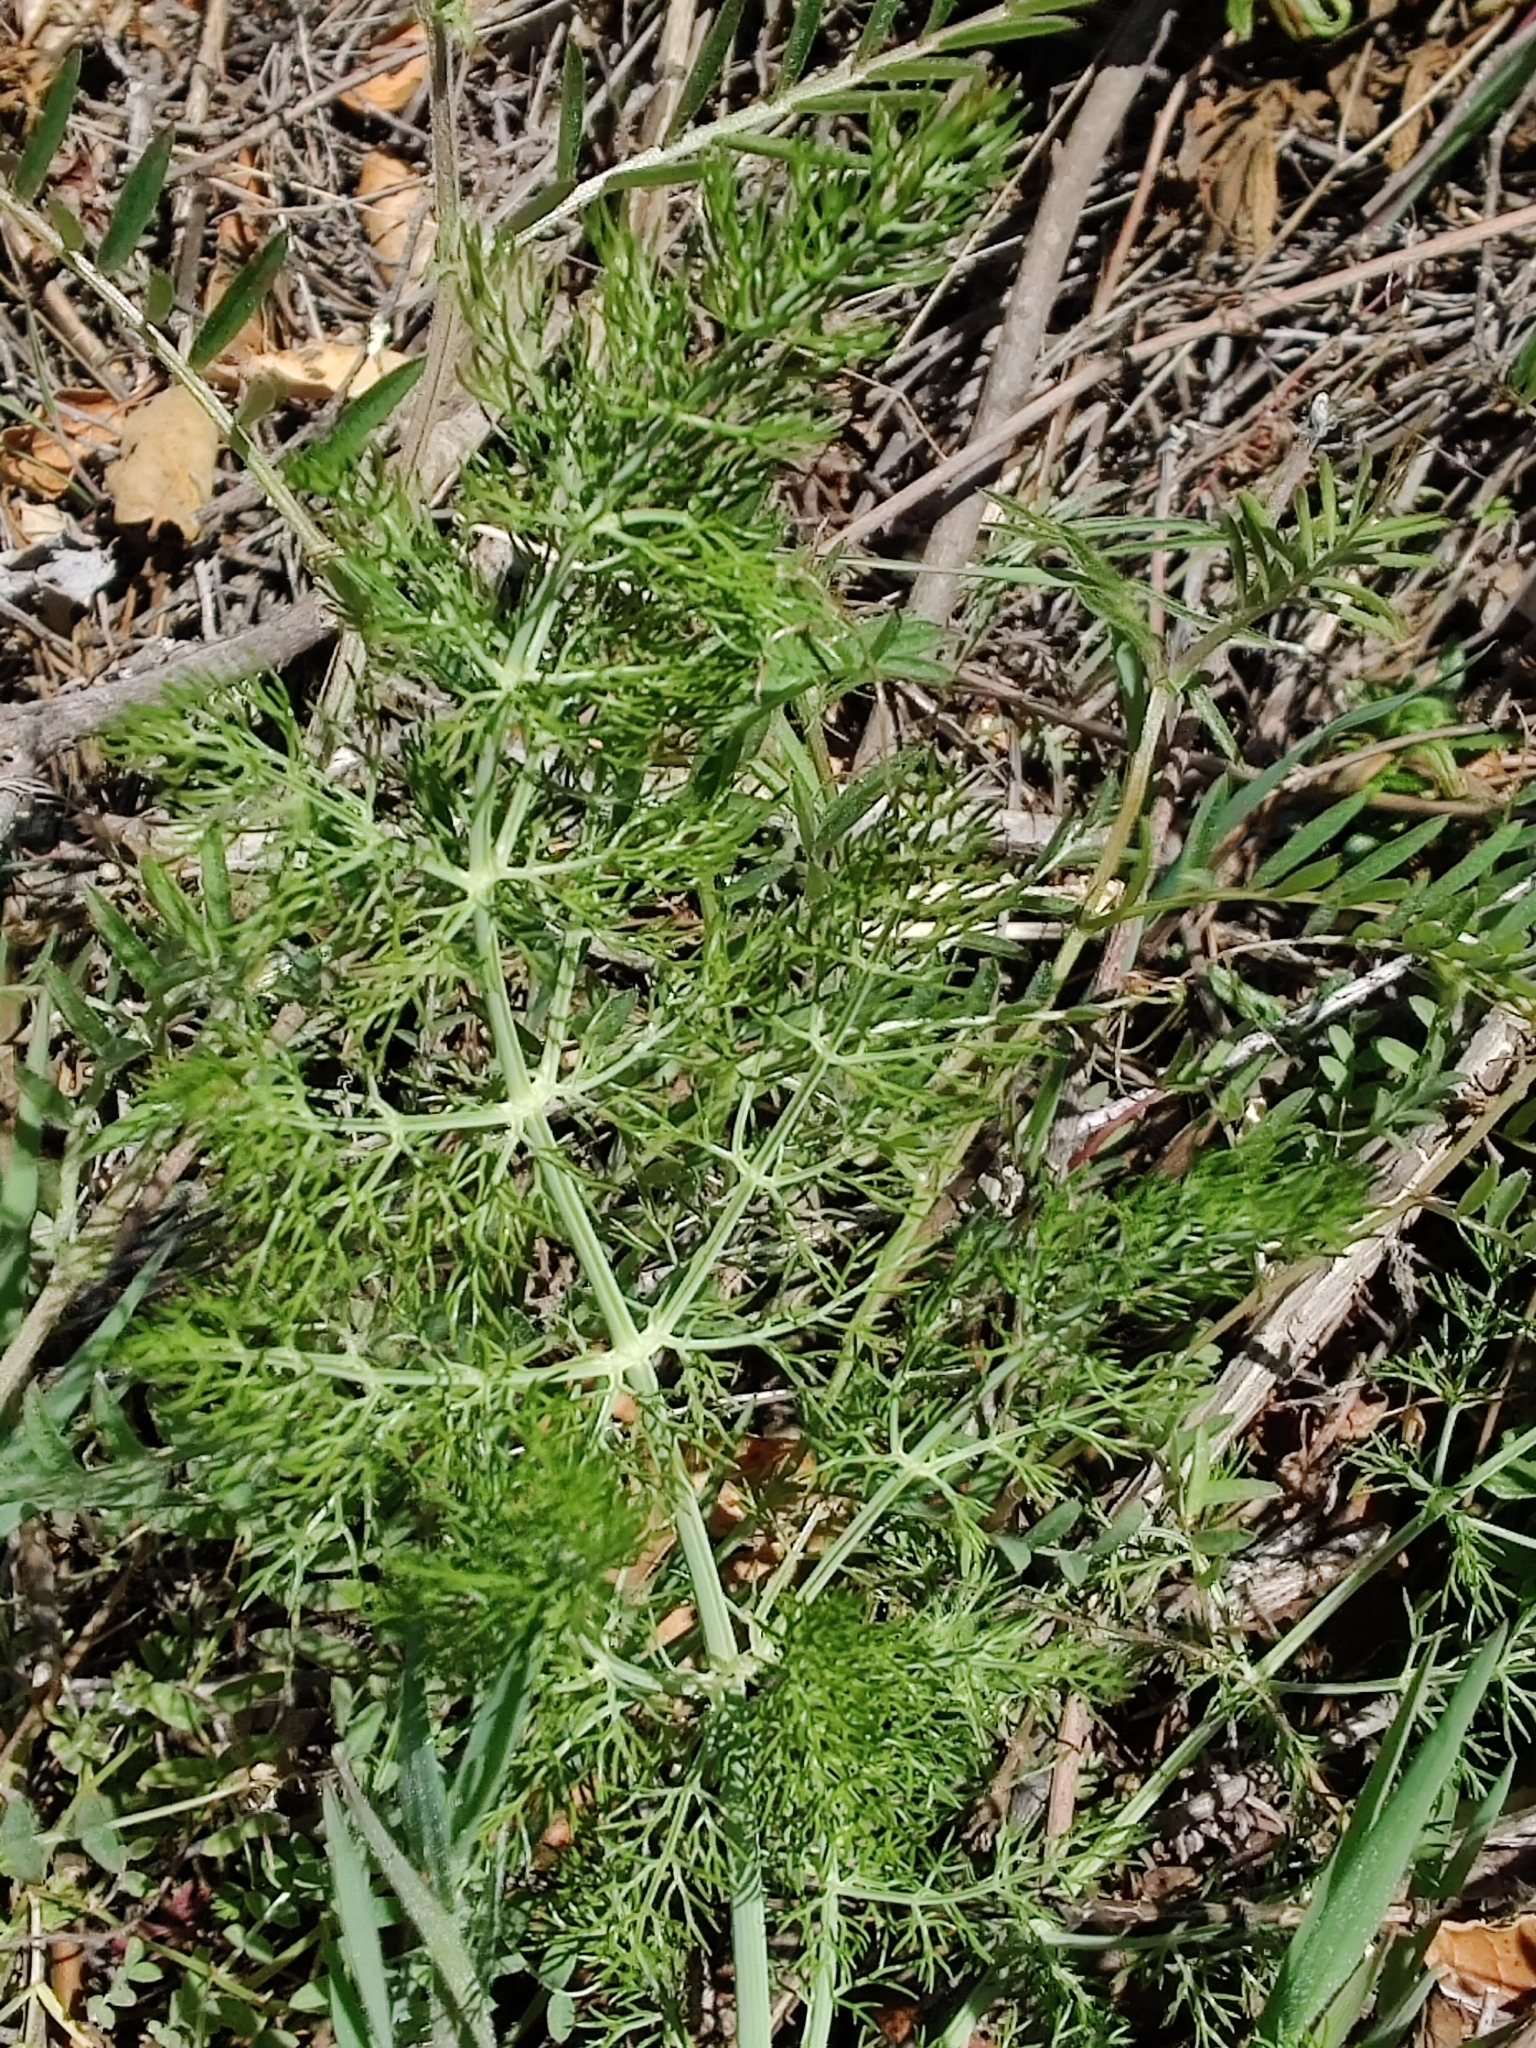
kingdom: Plantae
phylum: Tracheophyta
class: Magnoliopsida
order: Apiales
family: Apiaceae
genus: Foeniculum
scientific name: Foeniculum vulgare
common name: Fennel
